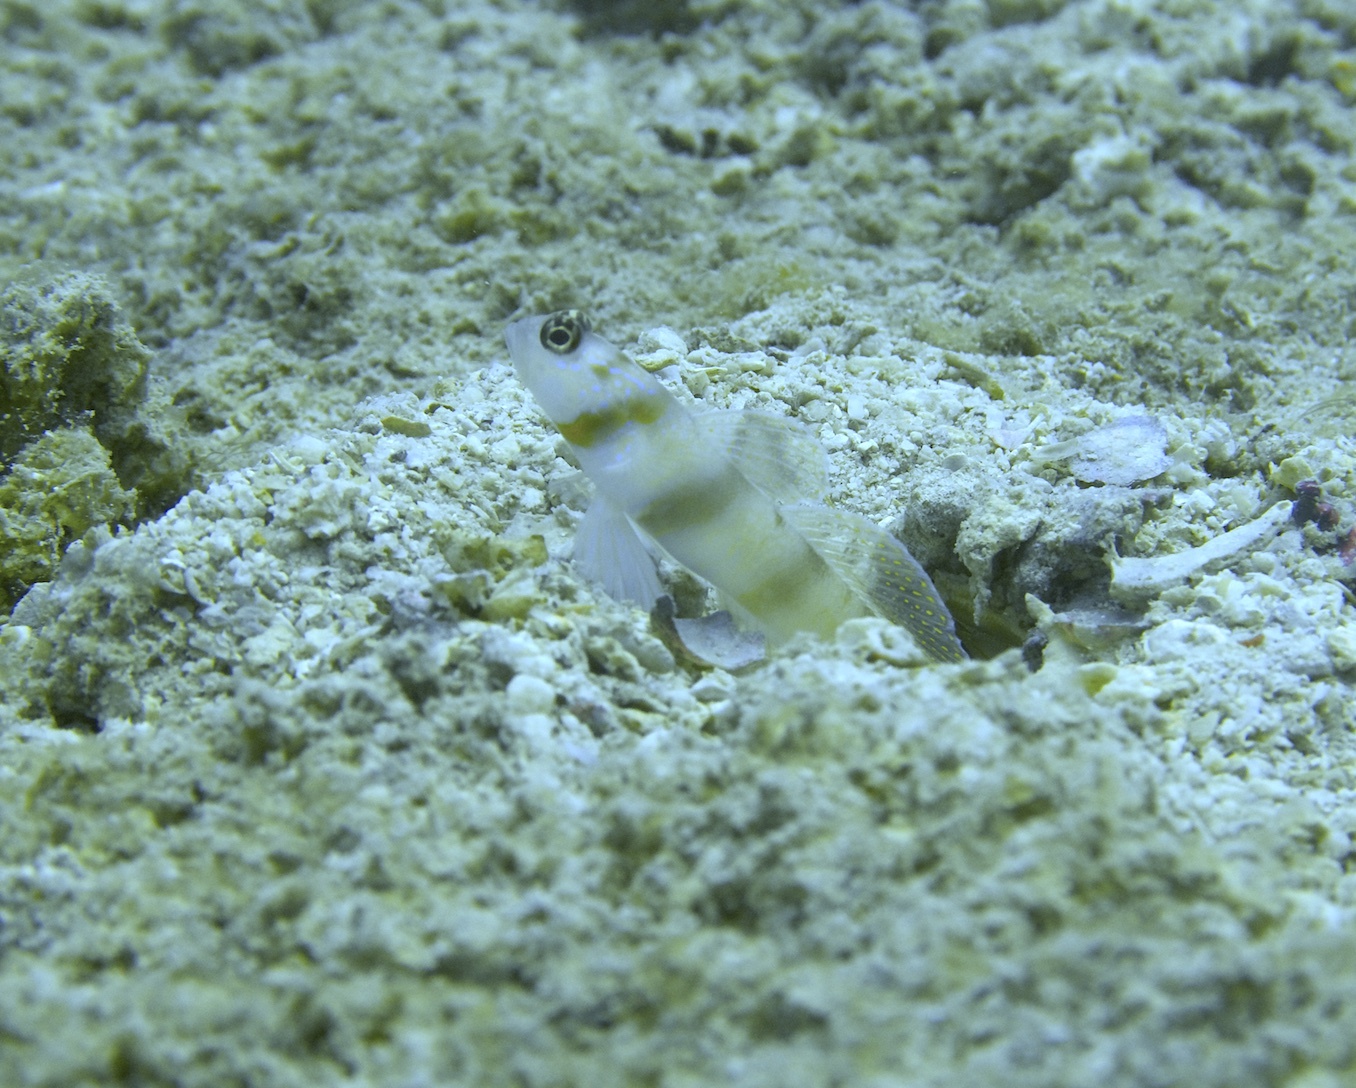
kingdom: Animalia
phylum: Chordata
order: Perciformes
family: Gobiidae
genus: Amblyeleotris
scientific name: Amblyeleotris steinitzi
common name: Steinitz' prawn-goby
